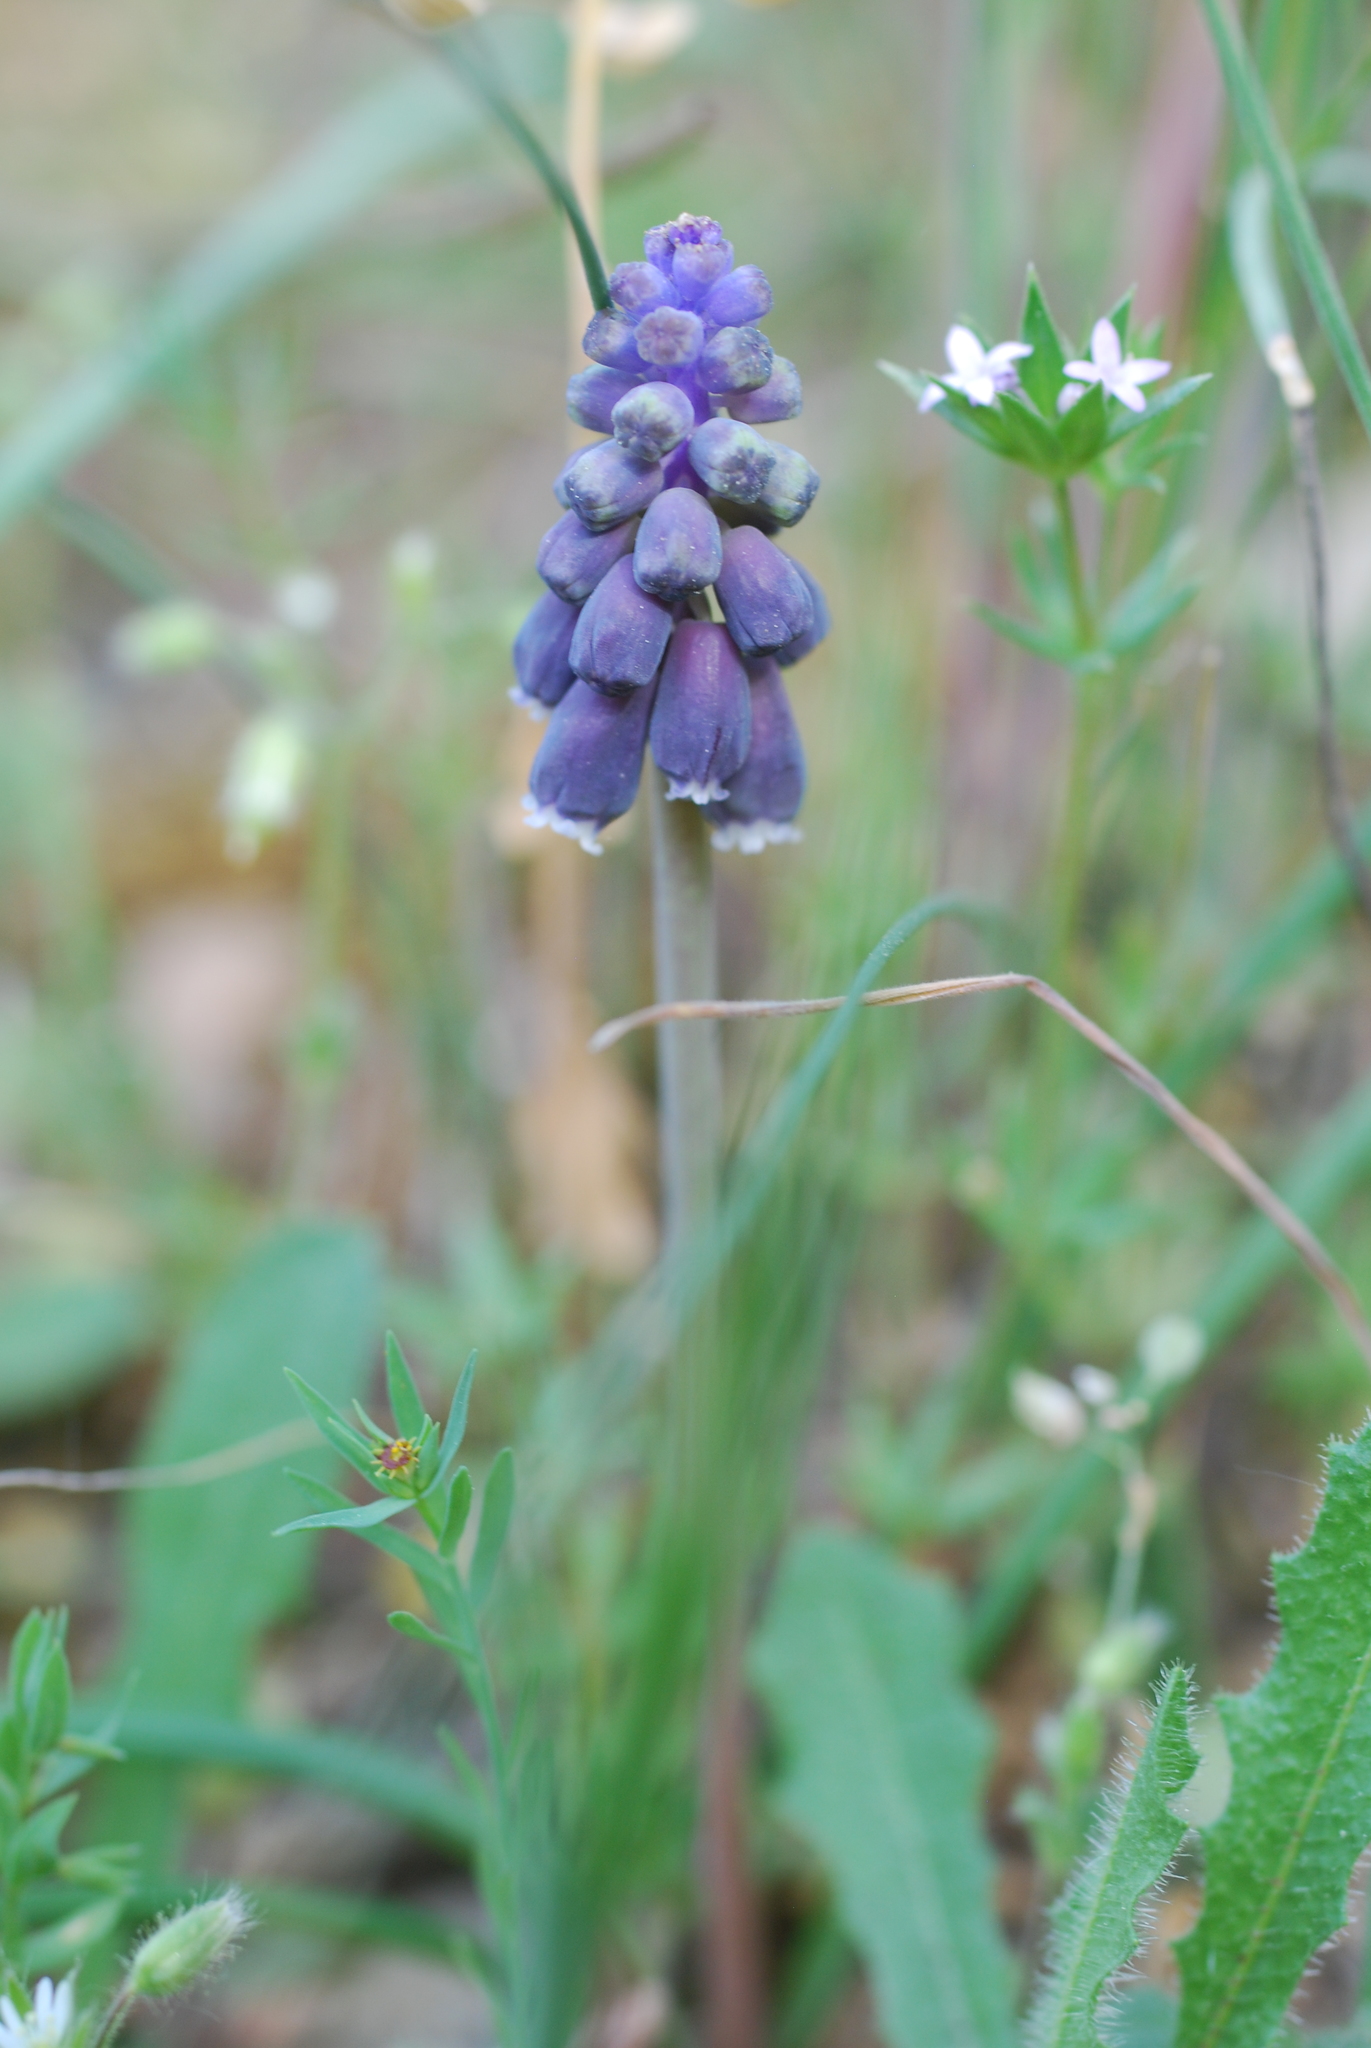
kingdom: Plantae
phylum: Tracheophyta
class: Liliopsida
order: Asparagales
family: Asparagaceae
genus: Muscari
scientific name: Muscari neglectum
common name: Grape-hyacinth
